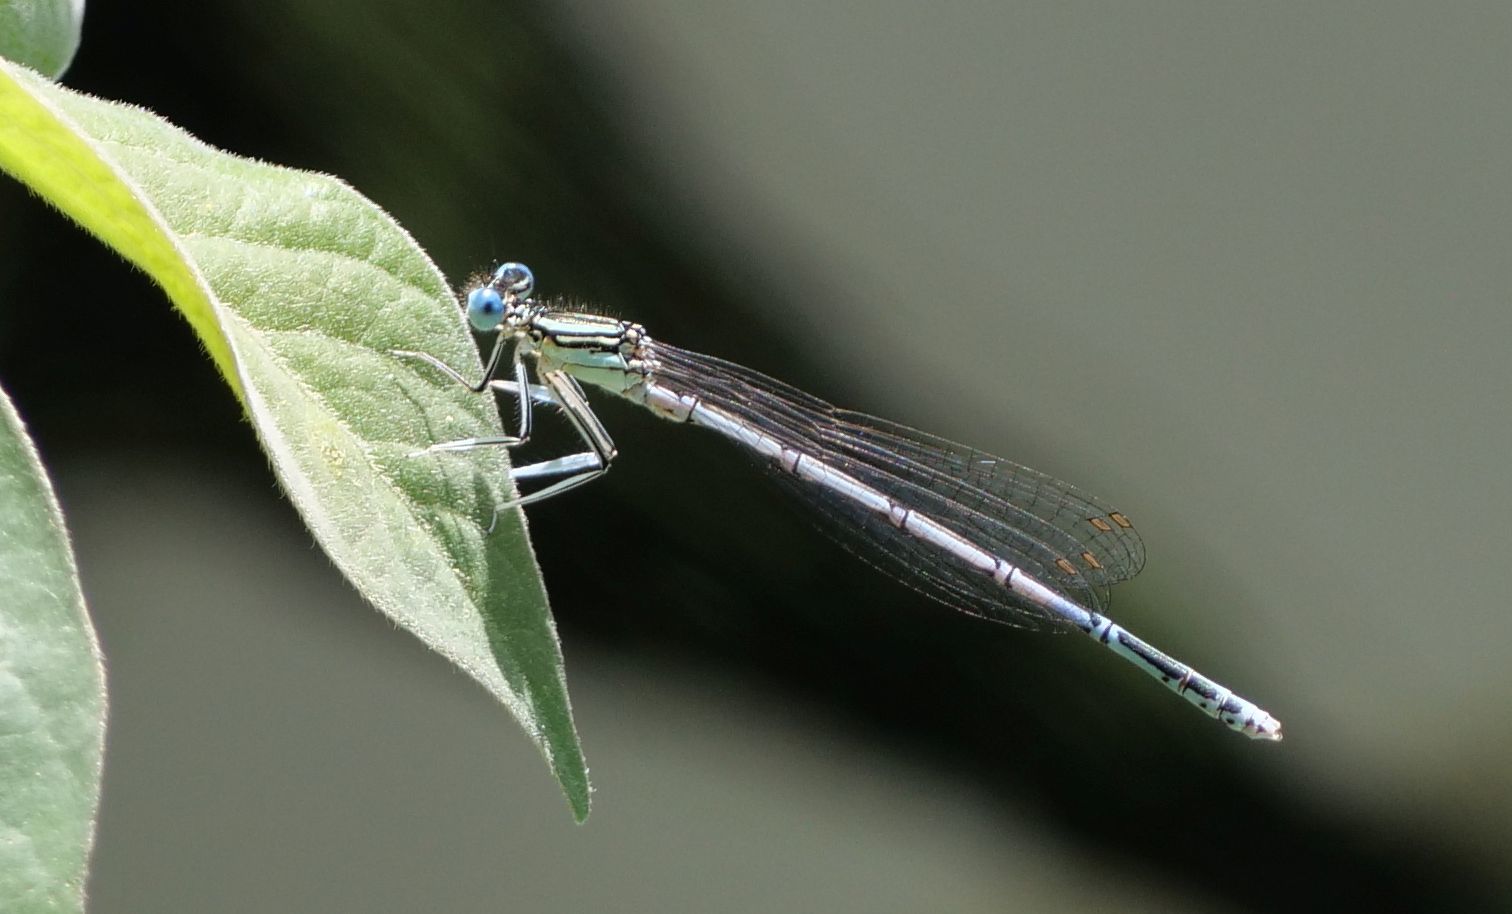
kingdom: Animalia
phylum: Arthropoda
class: Insecta
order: Odonata
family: Platycnemididae
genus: Platycnemis
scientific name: Platycnemis pennipes
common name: White-legged damselfly
